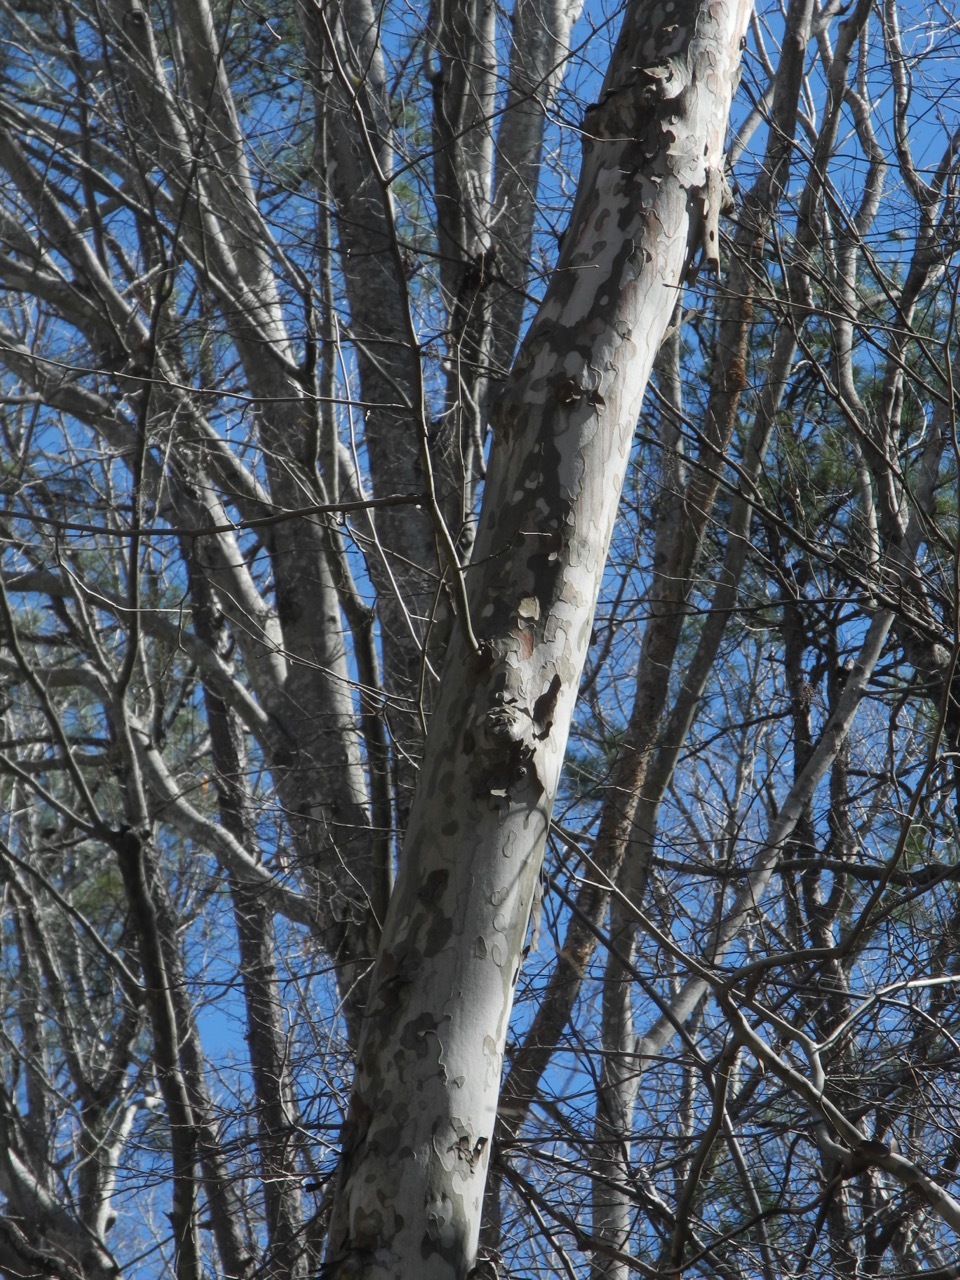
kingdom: Plantae
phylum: Tracheophyta
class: Magnoliopsida
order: Proteales
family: Platanaceae
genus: Platanus
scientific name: Platanus occidentalis
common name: American sycamore
